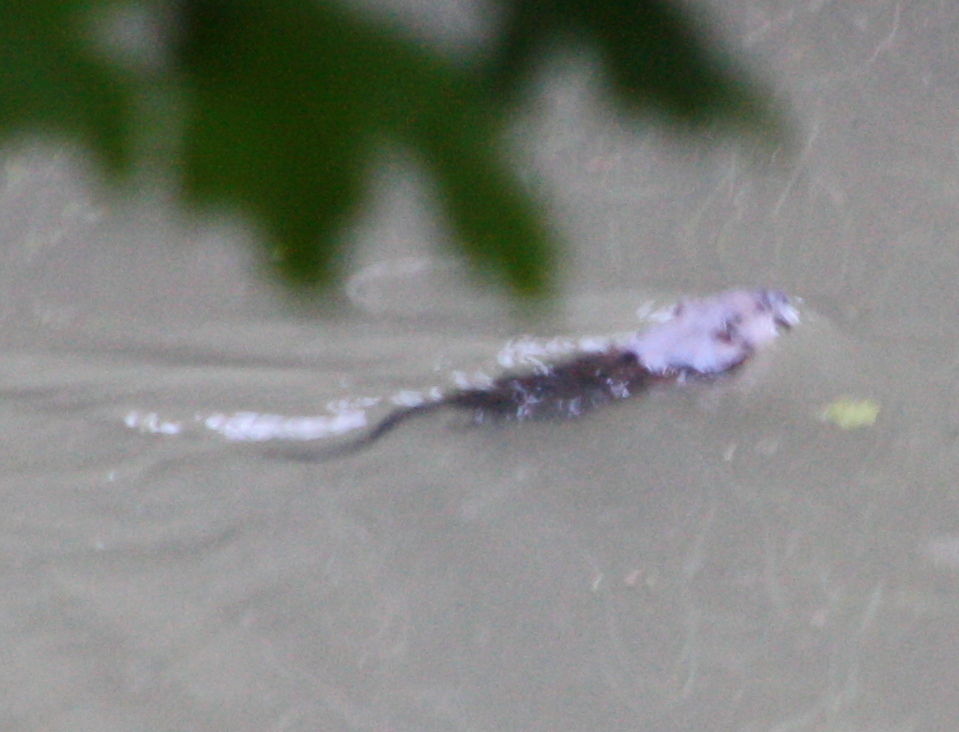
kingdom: Animalia
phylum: Chordata
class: Mammalia
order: Rodentia
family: Cricetidae
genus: Ondatra
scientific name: Ondatra zibethicus
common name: Muskrat
